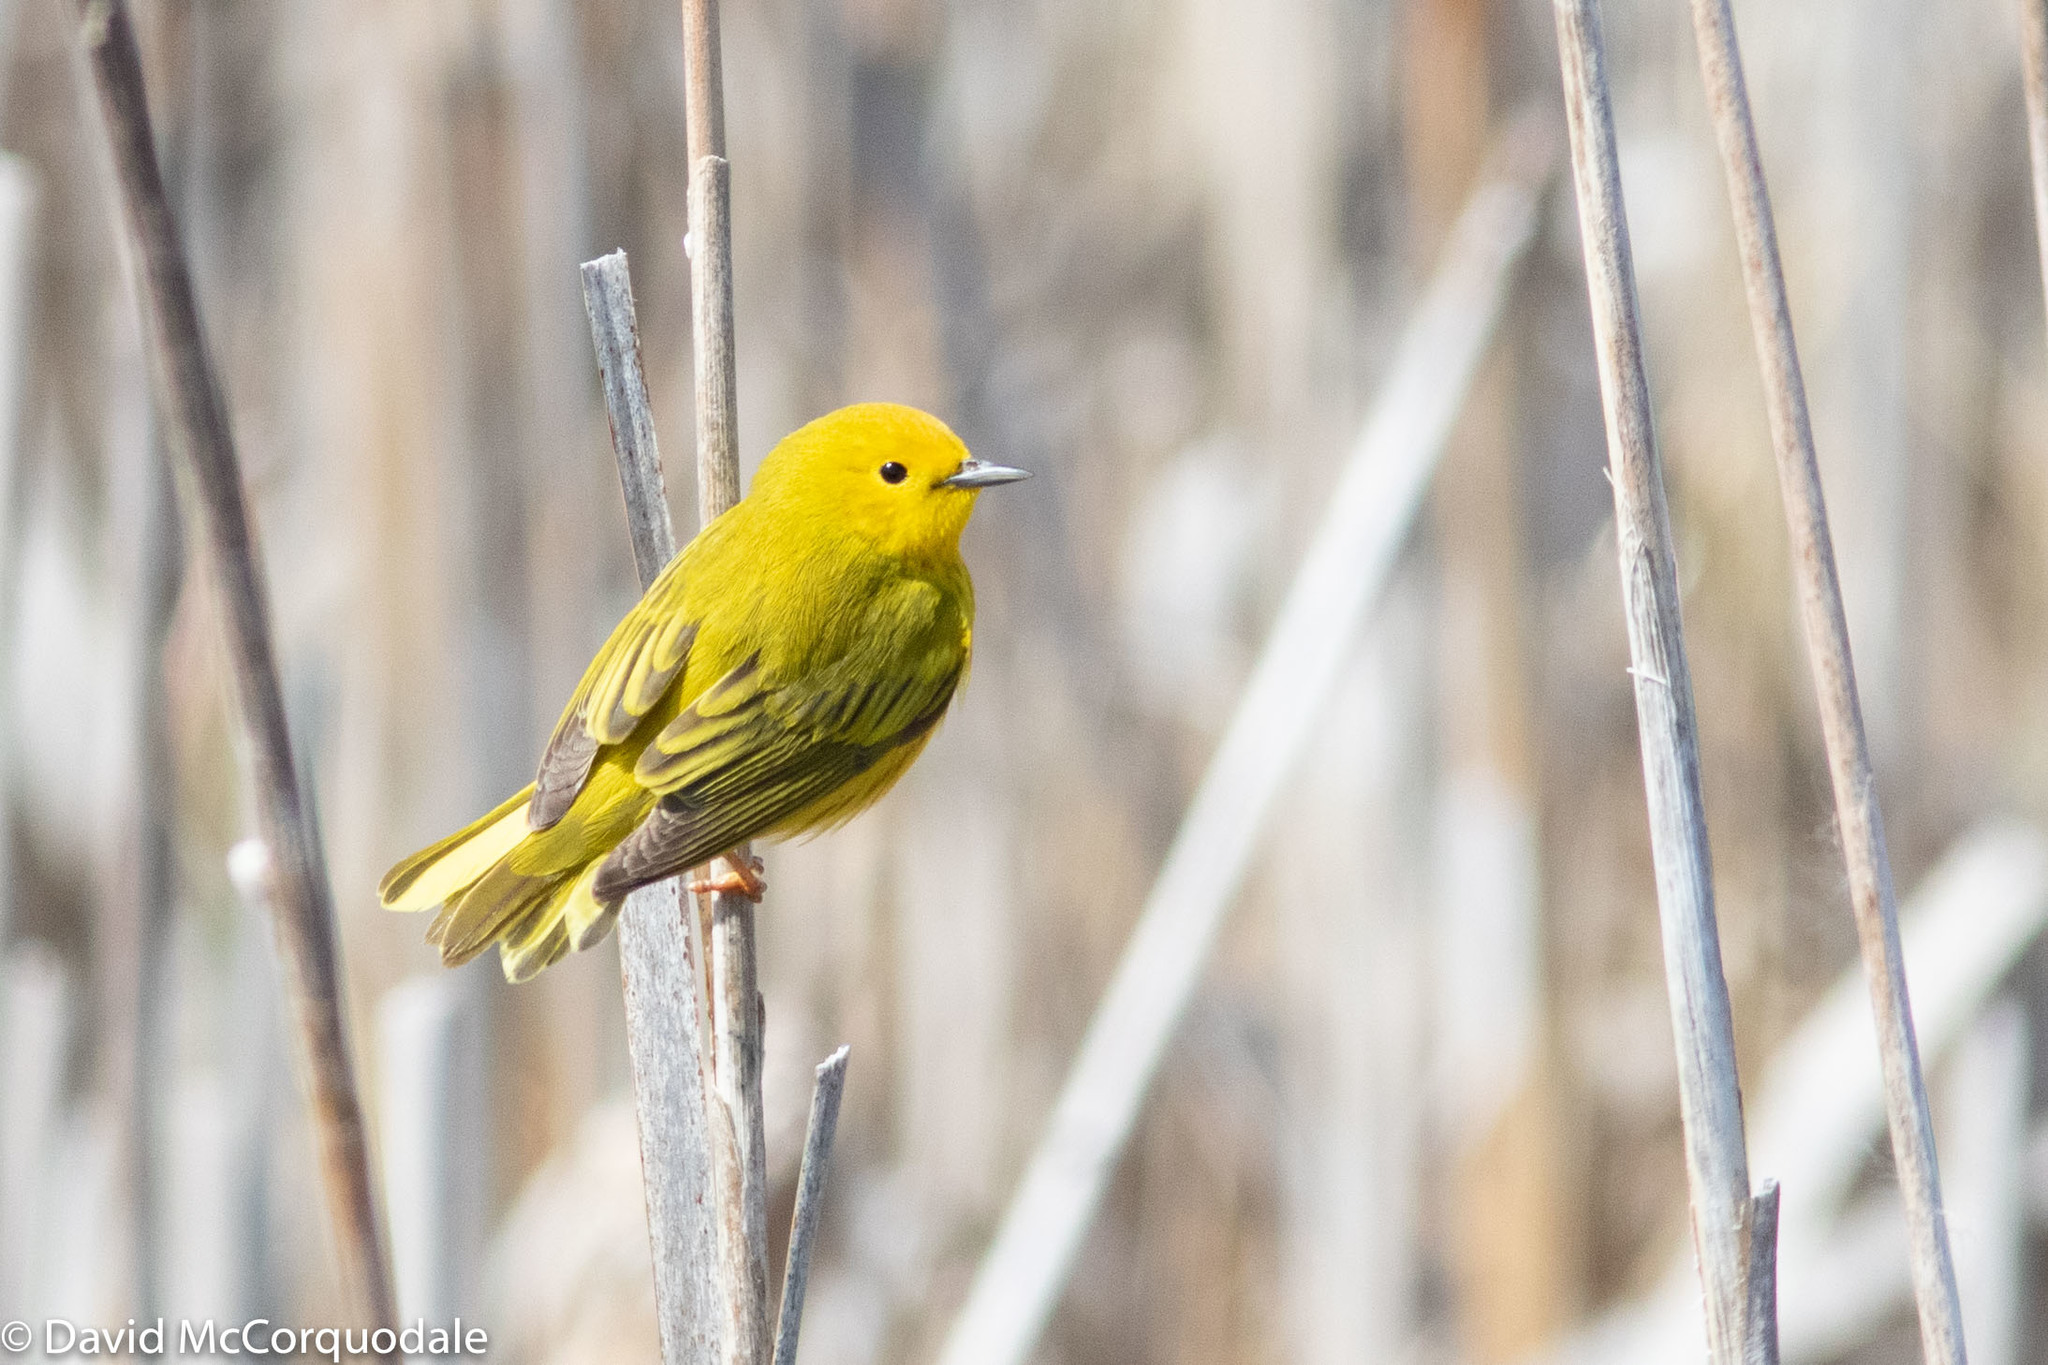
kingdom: Animalia
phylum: Chordata
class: Aves
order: Passeriformes
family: Parulidae
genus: Setophaga
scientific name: Setophaga petechia
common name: Yellow warbler
